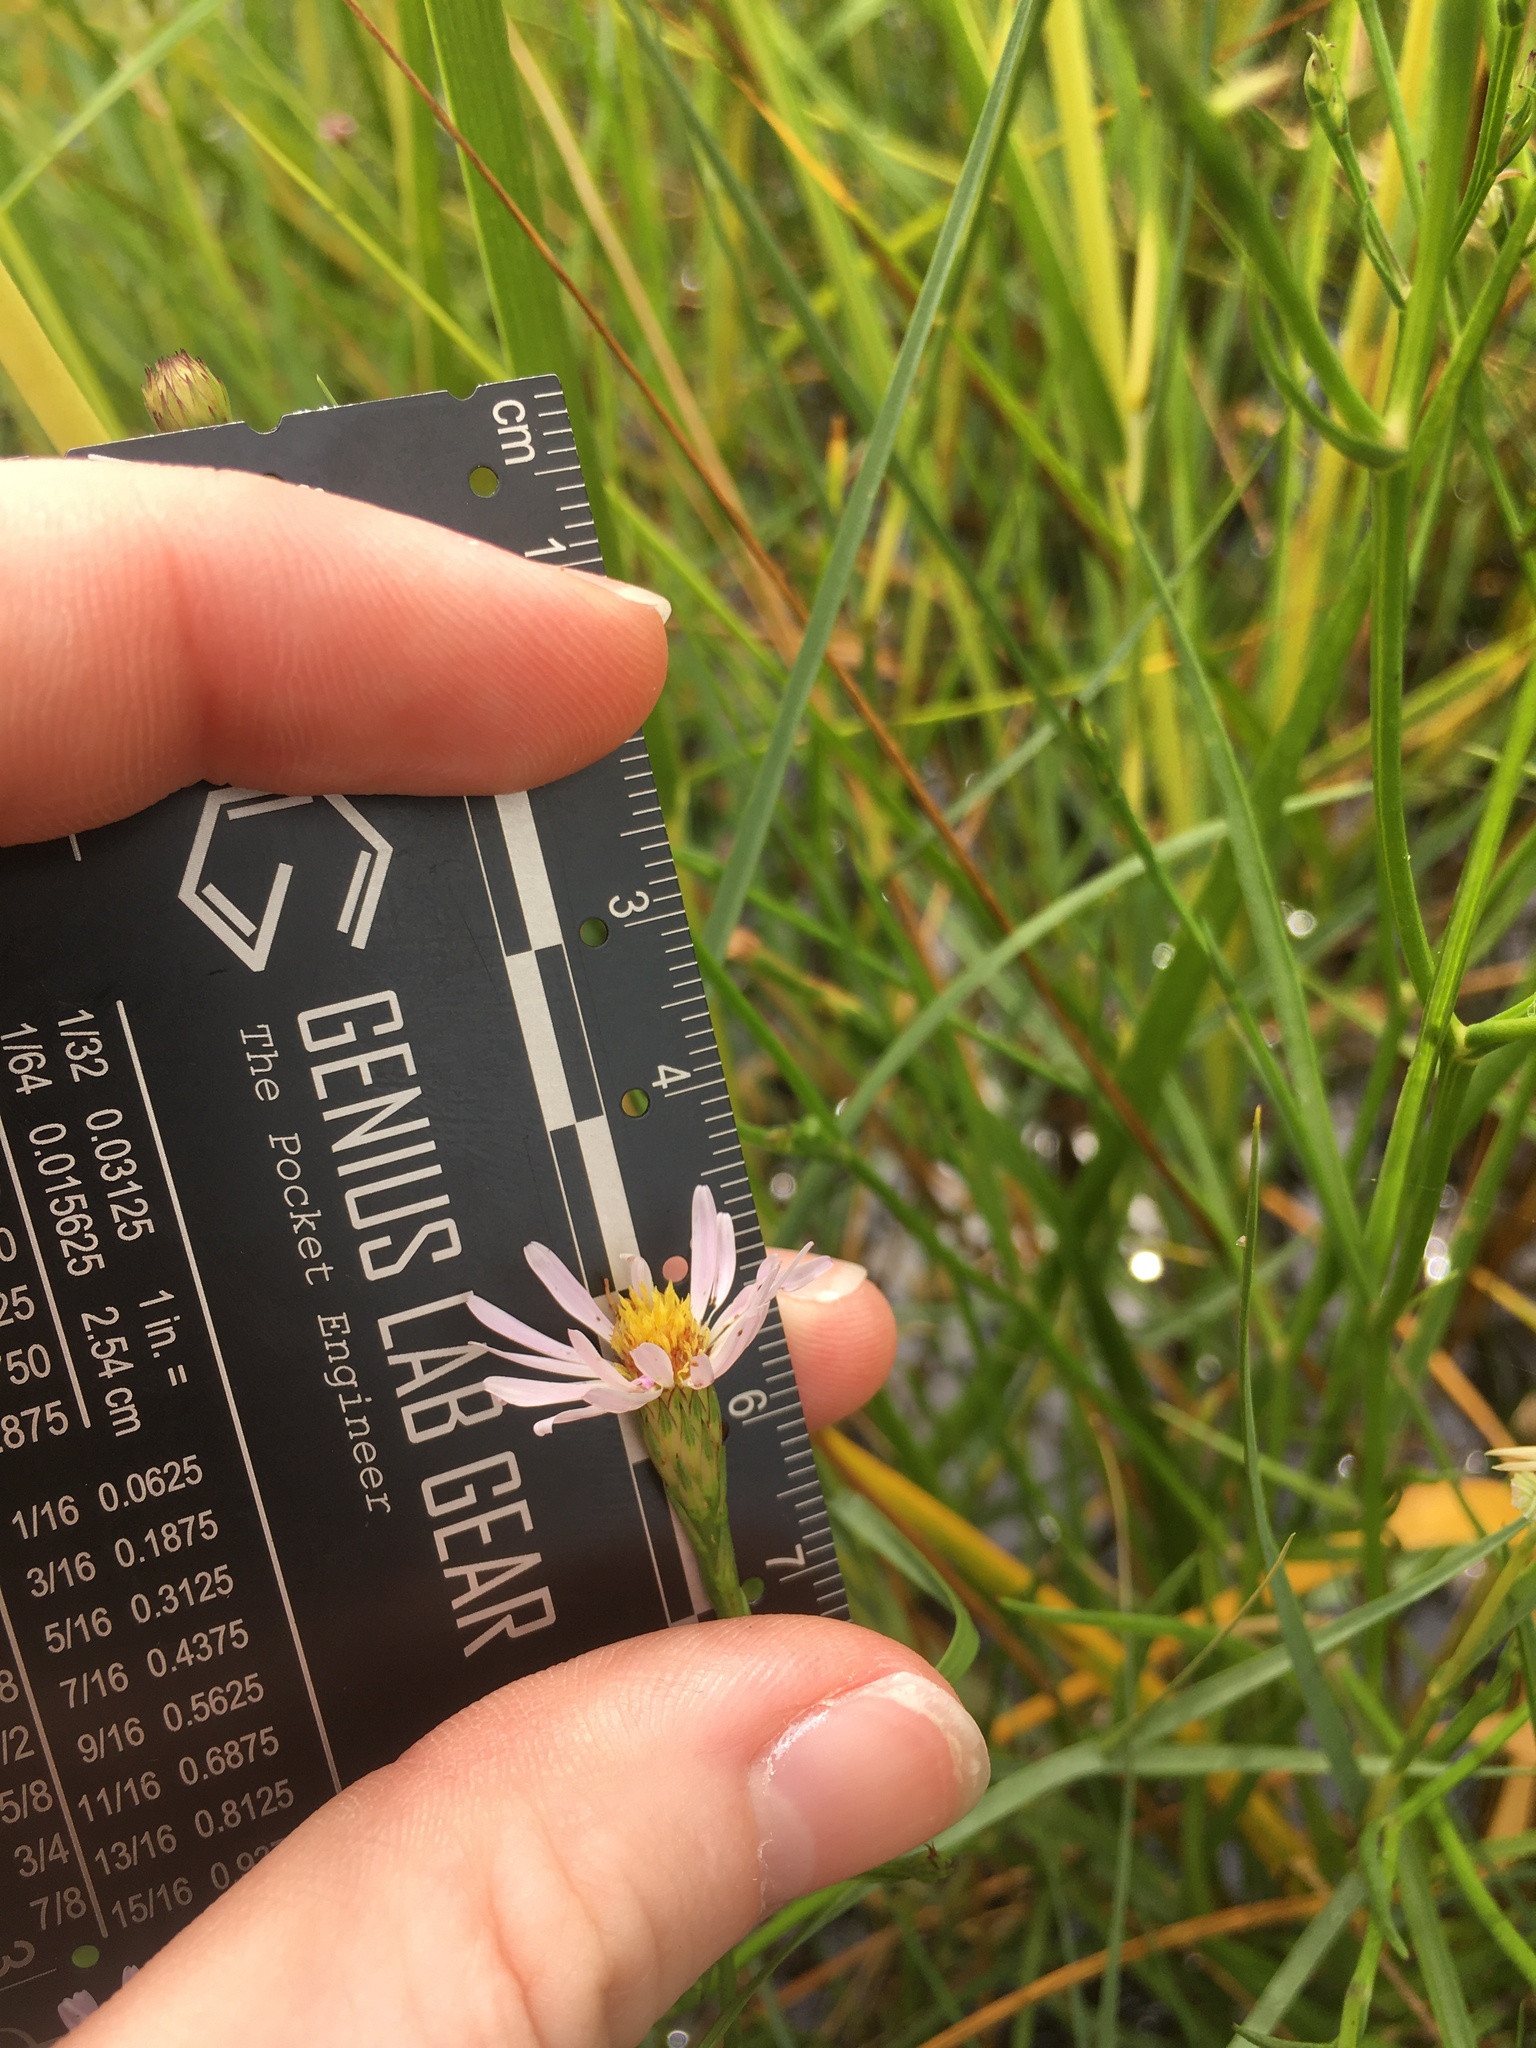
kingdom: Plantae
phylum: Tracheophyta
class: Magnoliopsida
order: Asterales
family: Asteraceae
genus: Symphyotrichum
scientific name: Symphyotrichum tenuifolium
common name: Perennial salt-marsh aster
